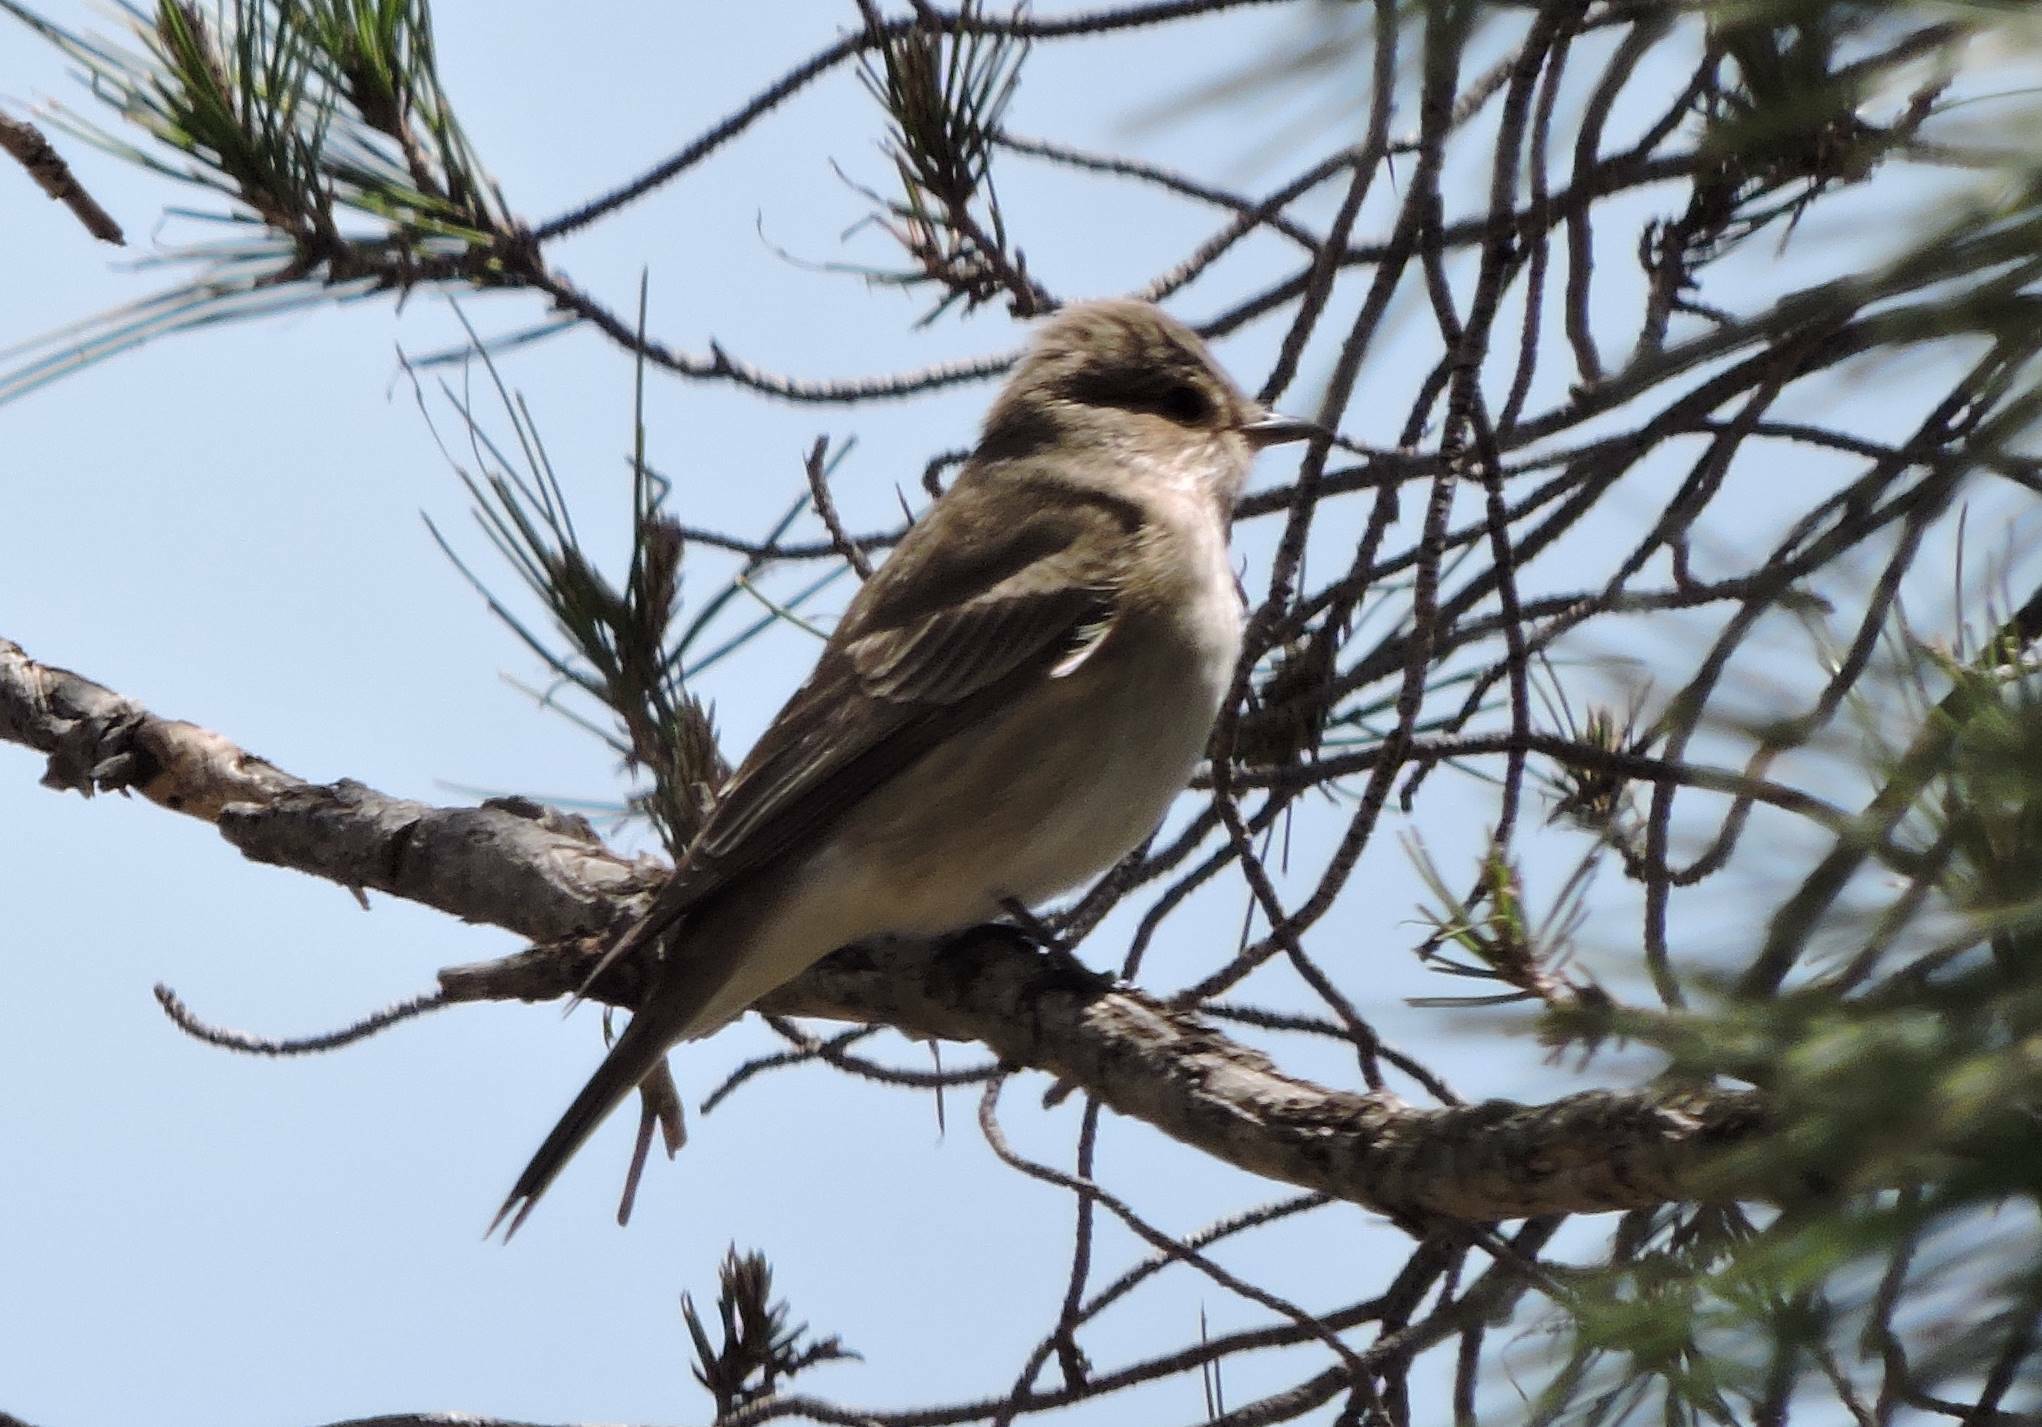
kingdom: Animalia
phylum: Chordata
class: Aves
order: Passeriformes
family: Muscicapidae
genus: Muscicapa
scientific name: Muscicapa striata
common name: Spotted flycatcher
